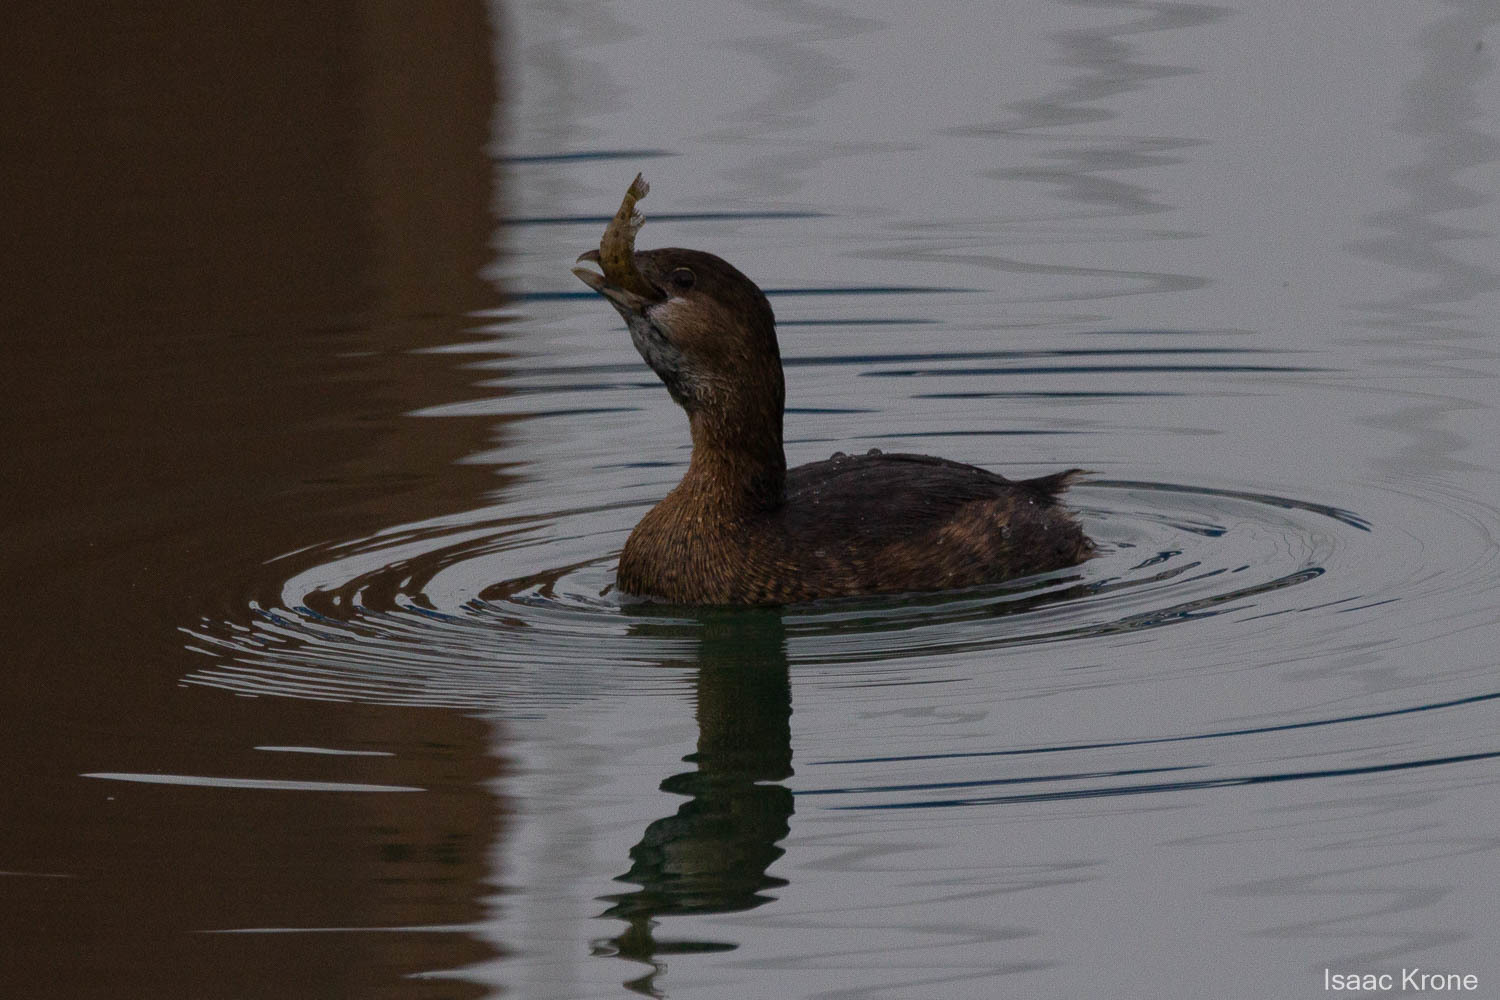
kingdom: Animalia
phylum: Chordata
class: Aves
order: Podicipediformes
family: Podicipedidae
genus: Podilymbus
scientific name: Podilymbus podiceps
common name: Pied-billed grebe
